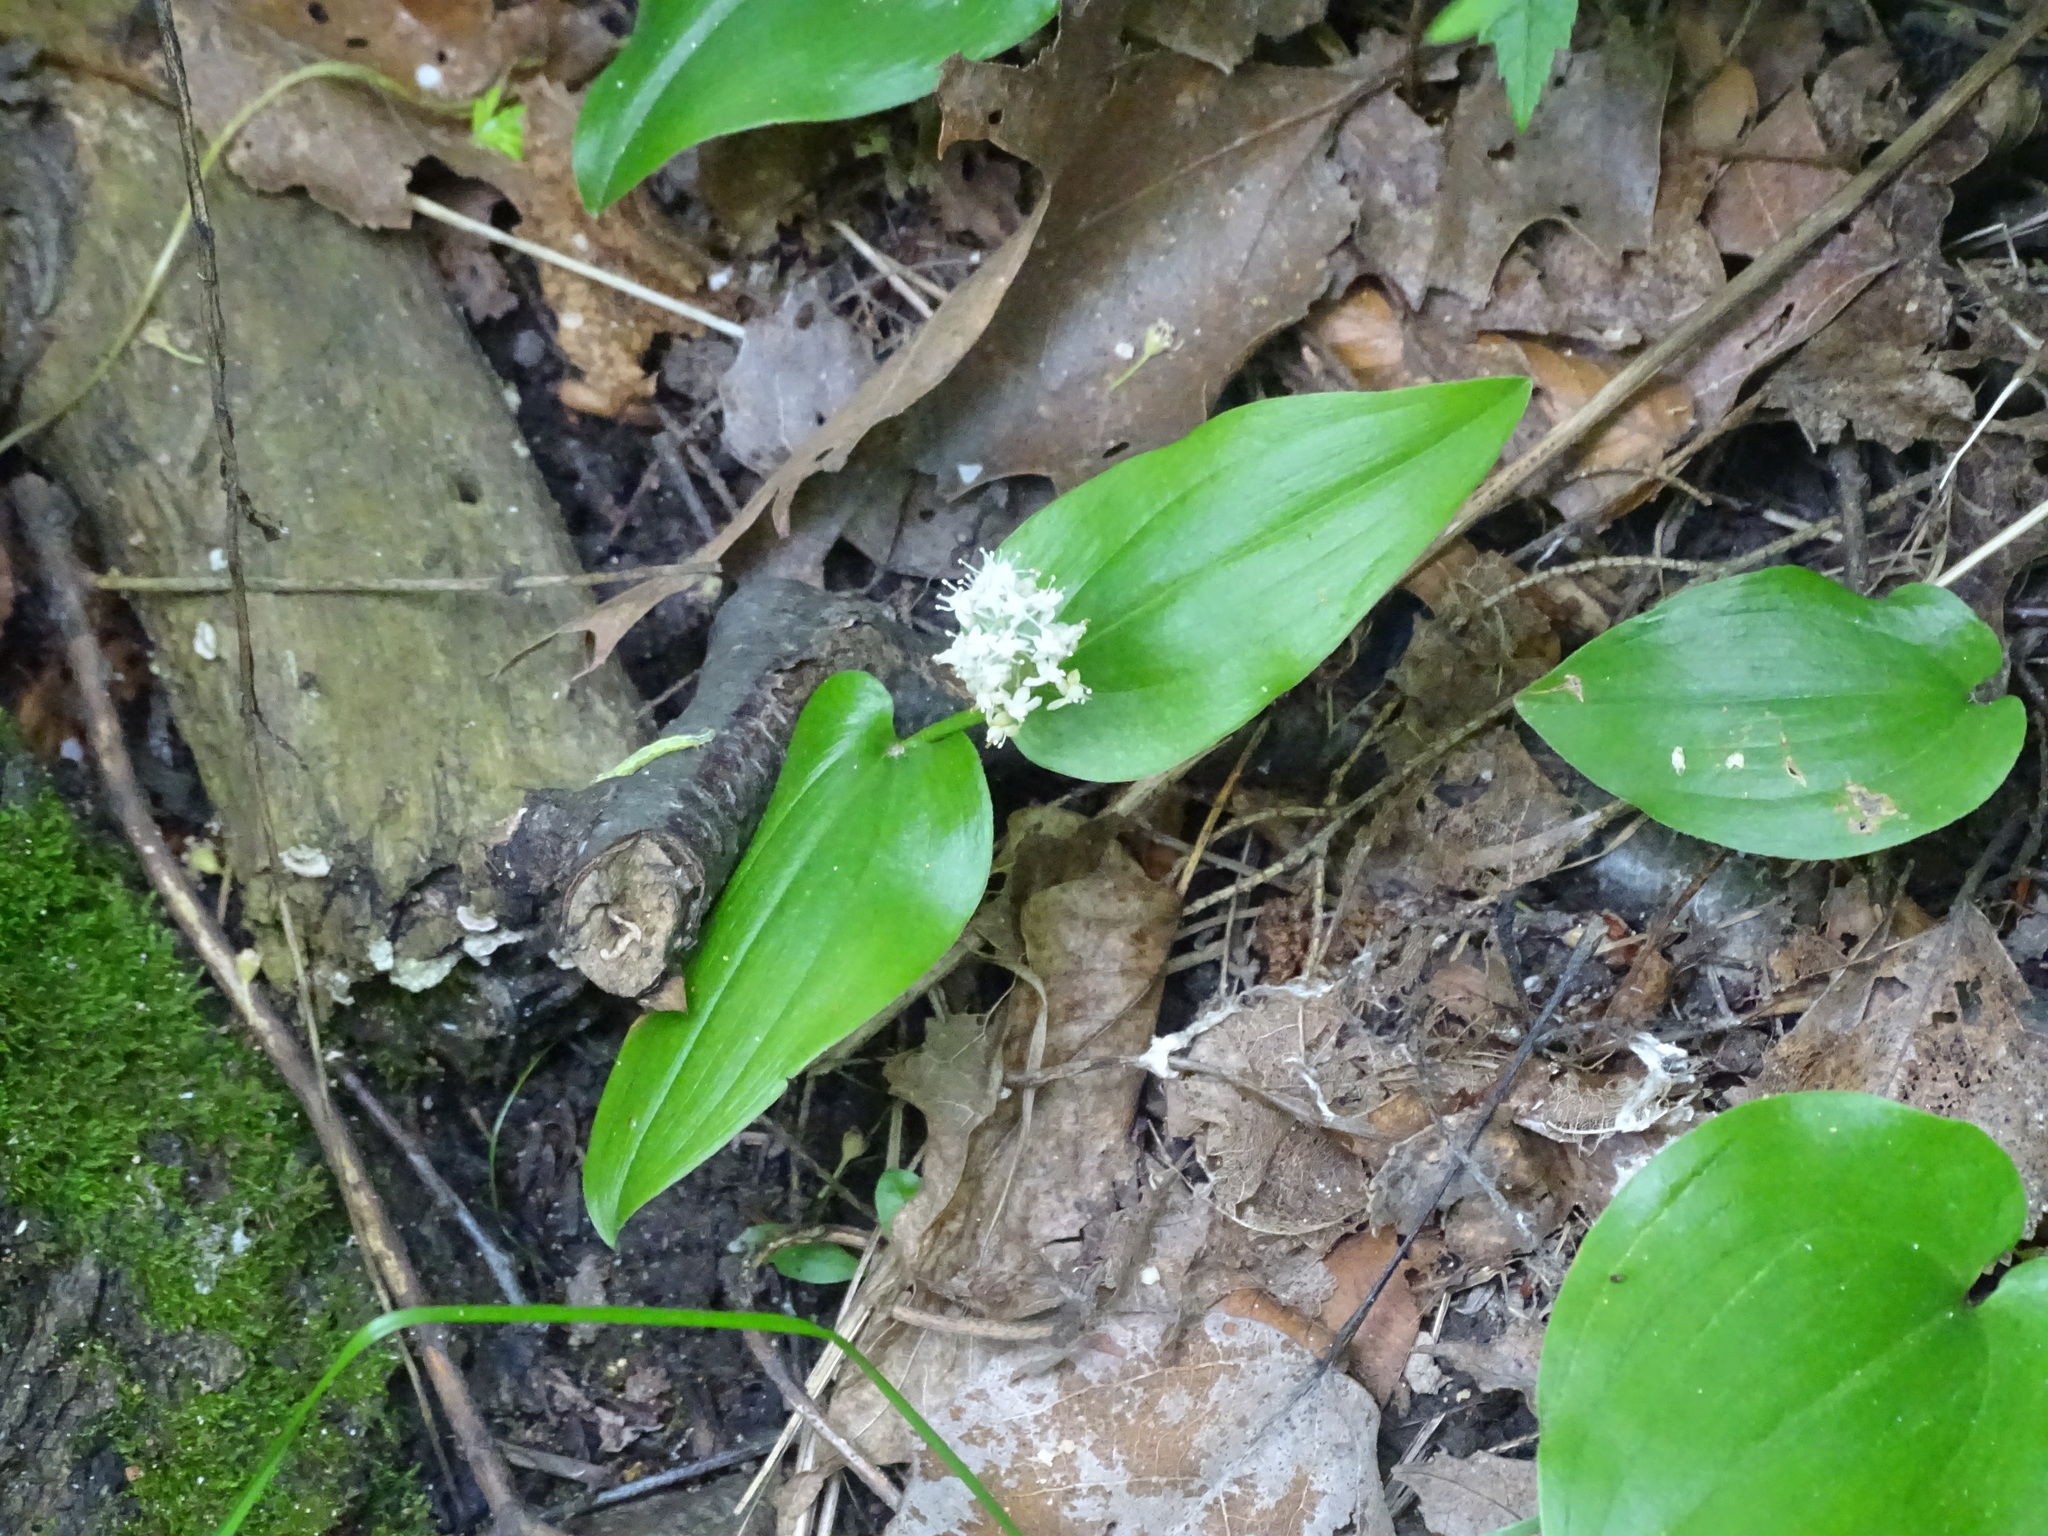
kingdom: Plantae
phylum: Tracheophyta
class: Liliopsida
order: Asparagales
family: Asparagaceae
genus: Maianthemum
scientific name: Maianthemum canadense
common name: False lily-of-the-valley
